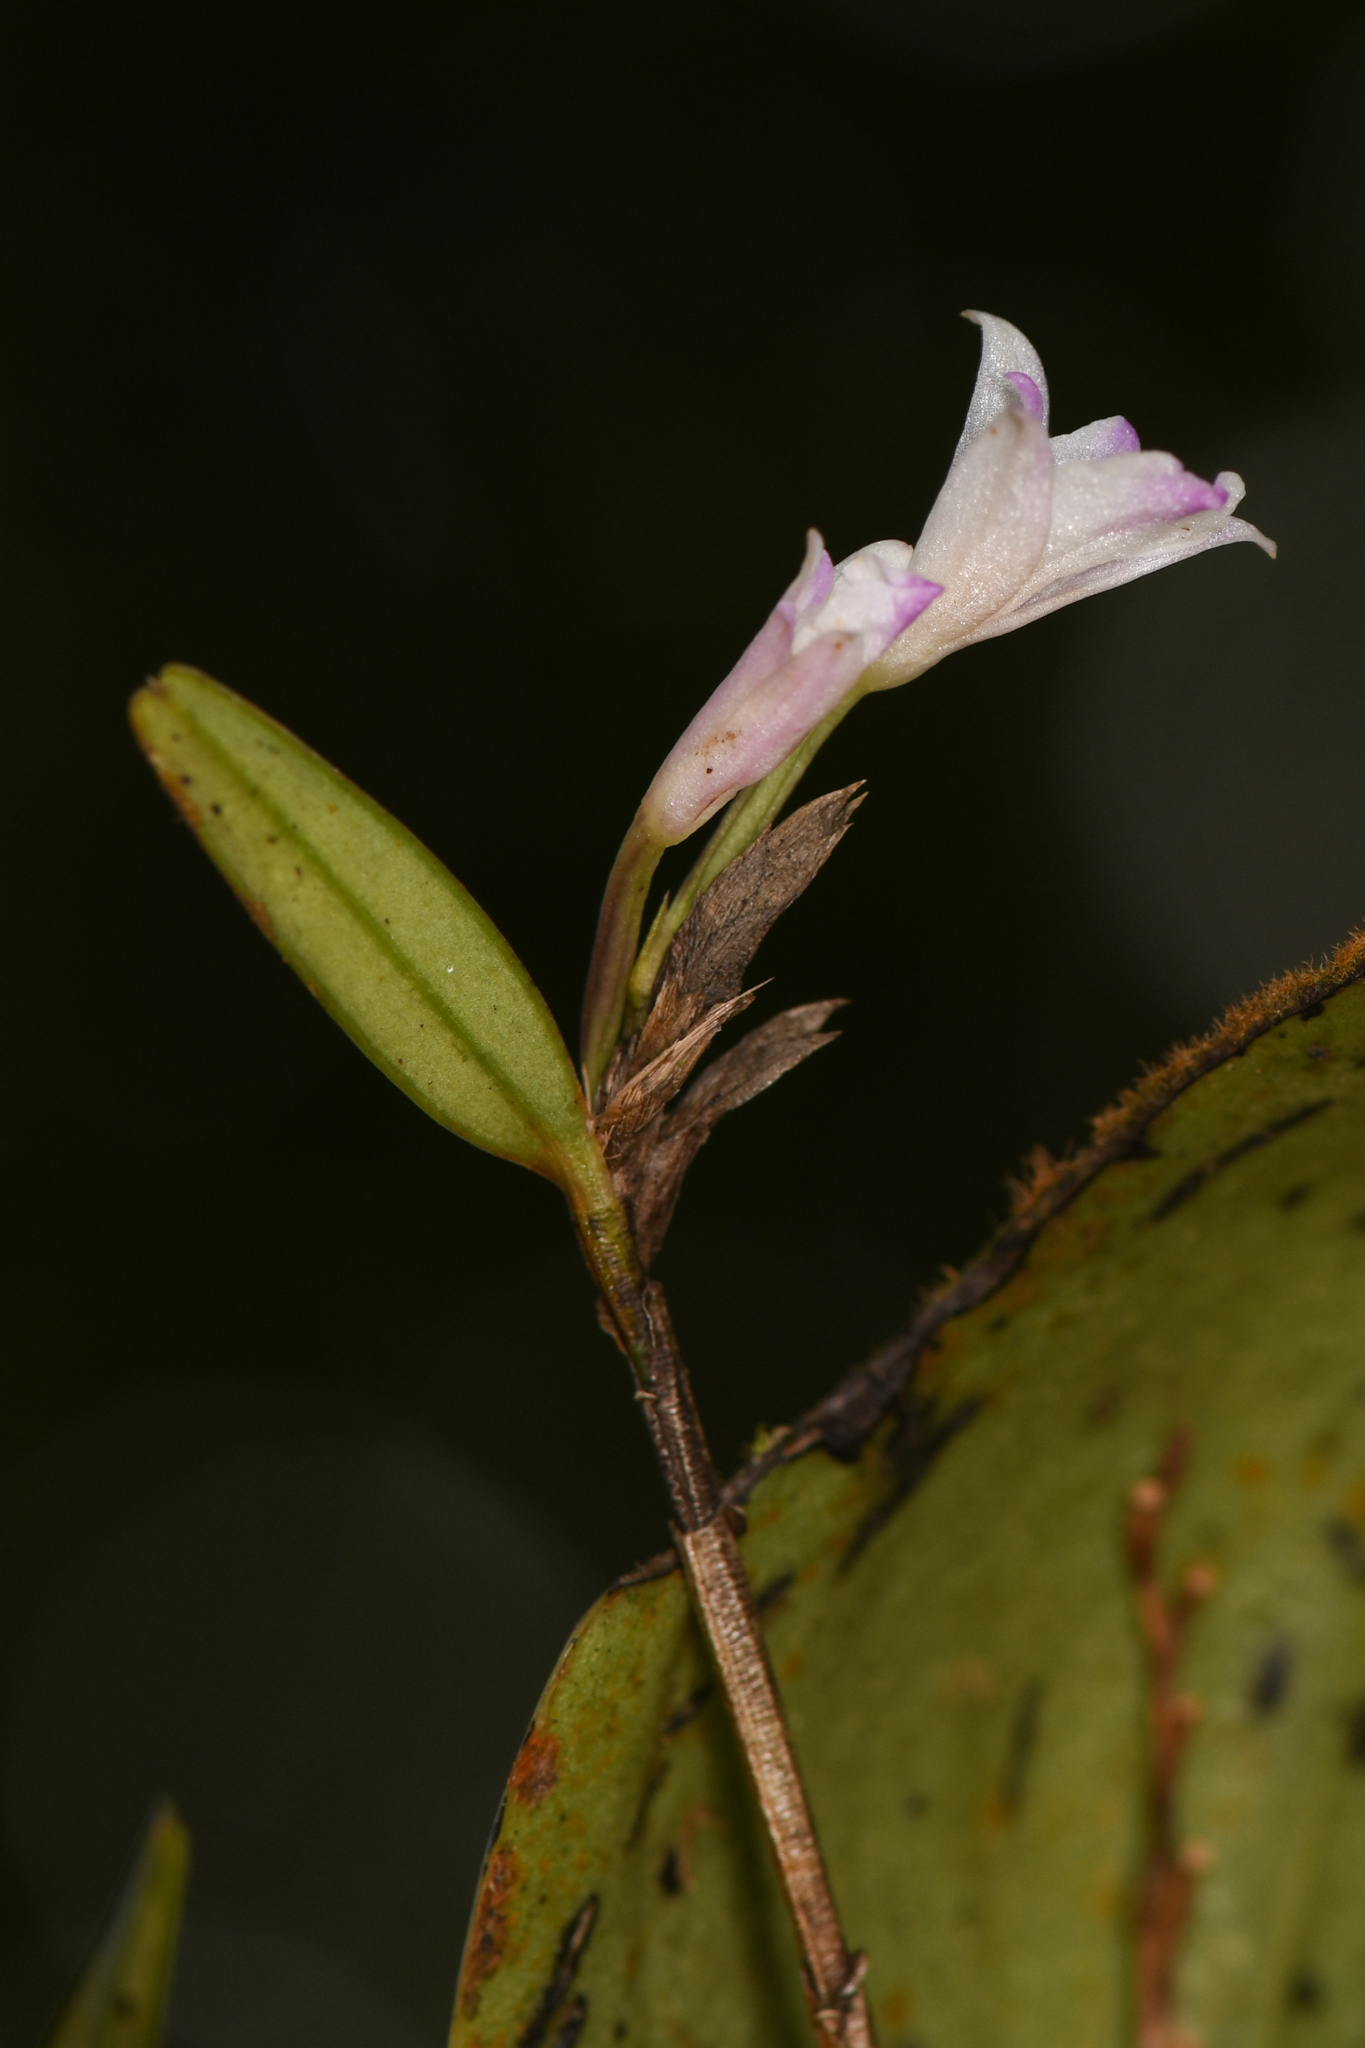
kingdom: Plantae
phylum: Tracheophyta
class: Liliopsida
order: Asparagales
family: Orchidaceae
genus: Acrorchis
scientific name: Acrorchis roseola
